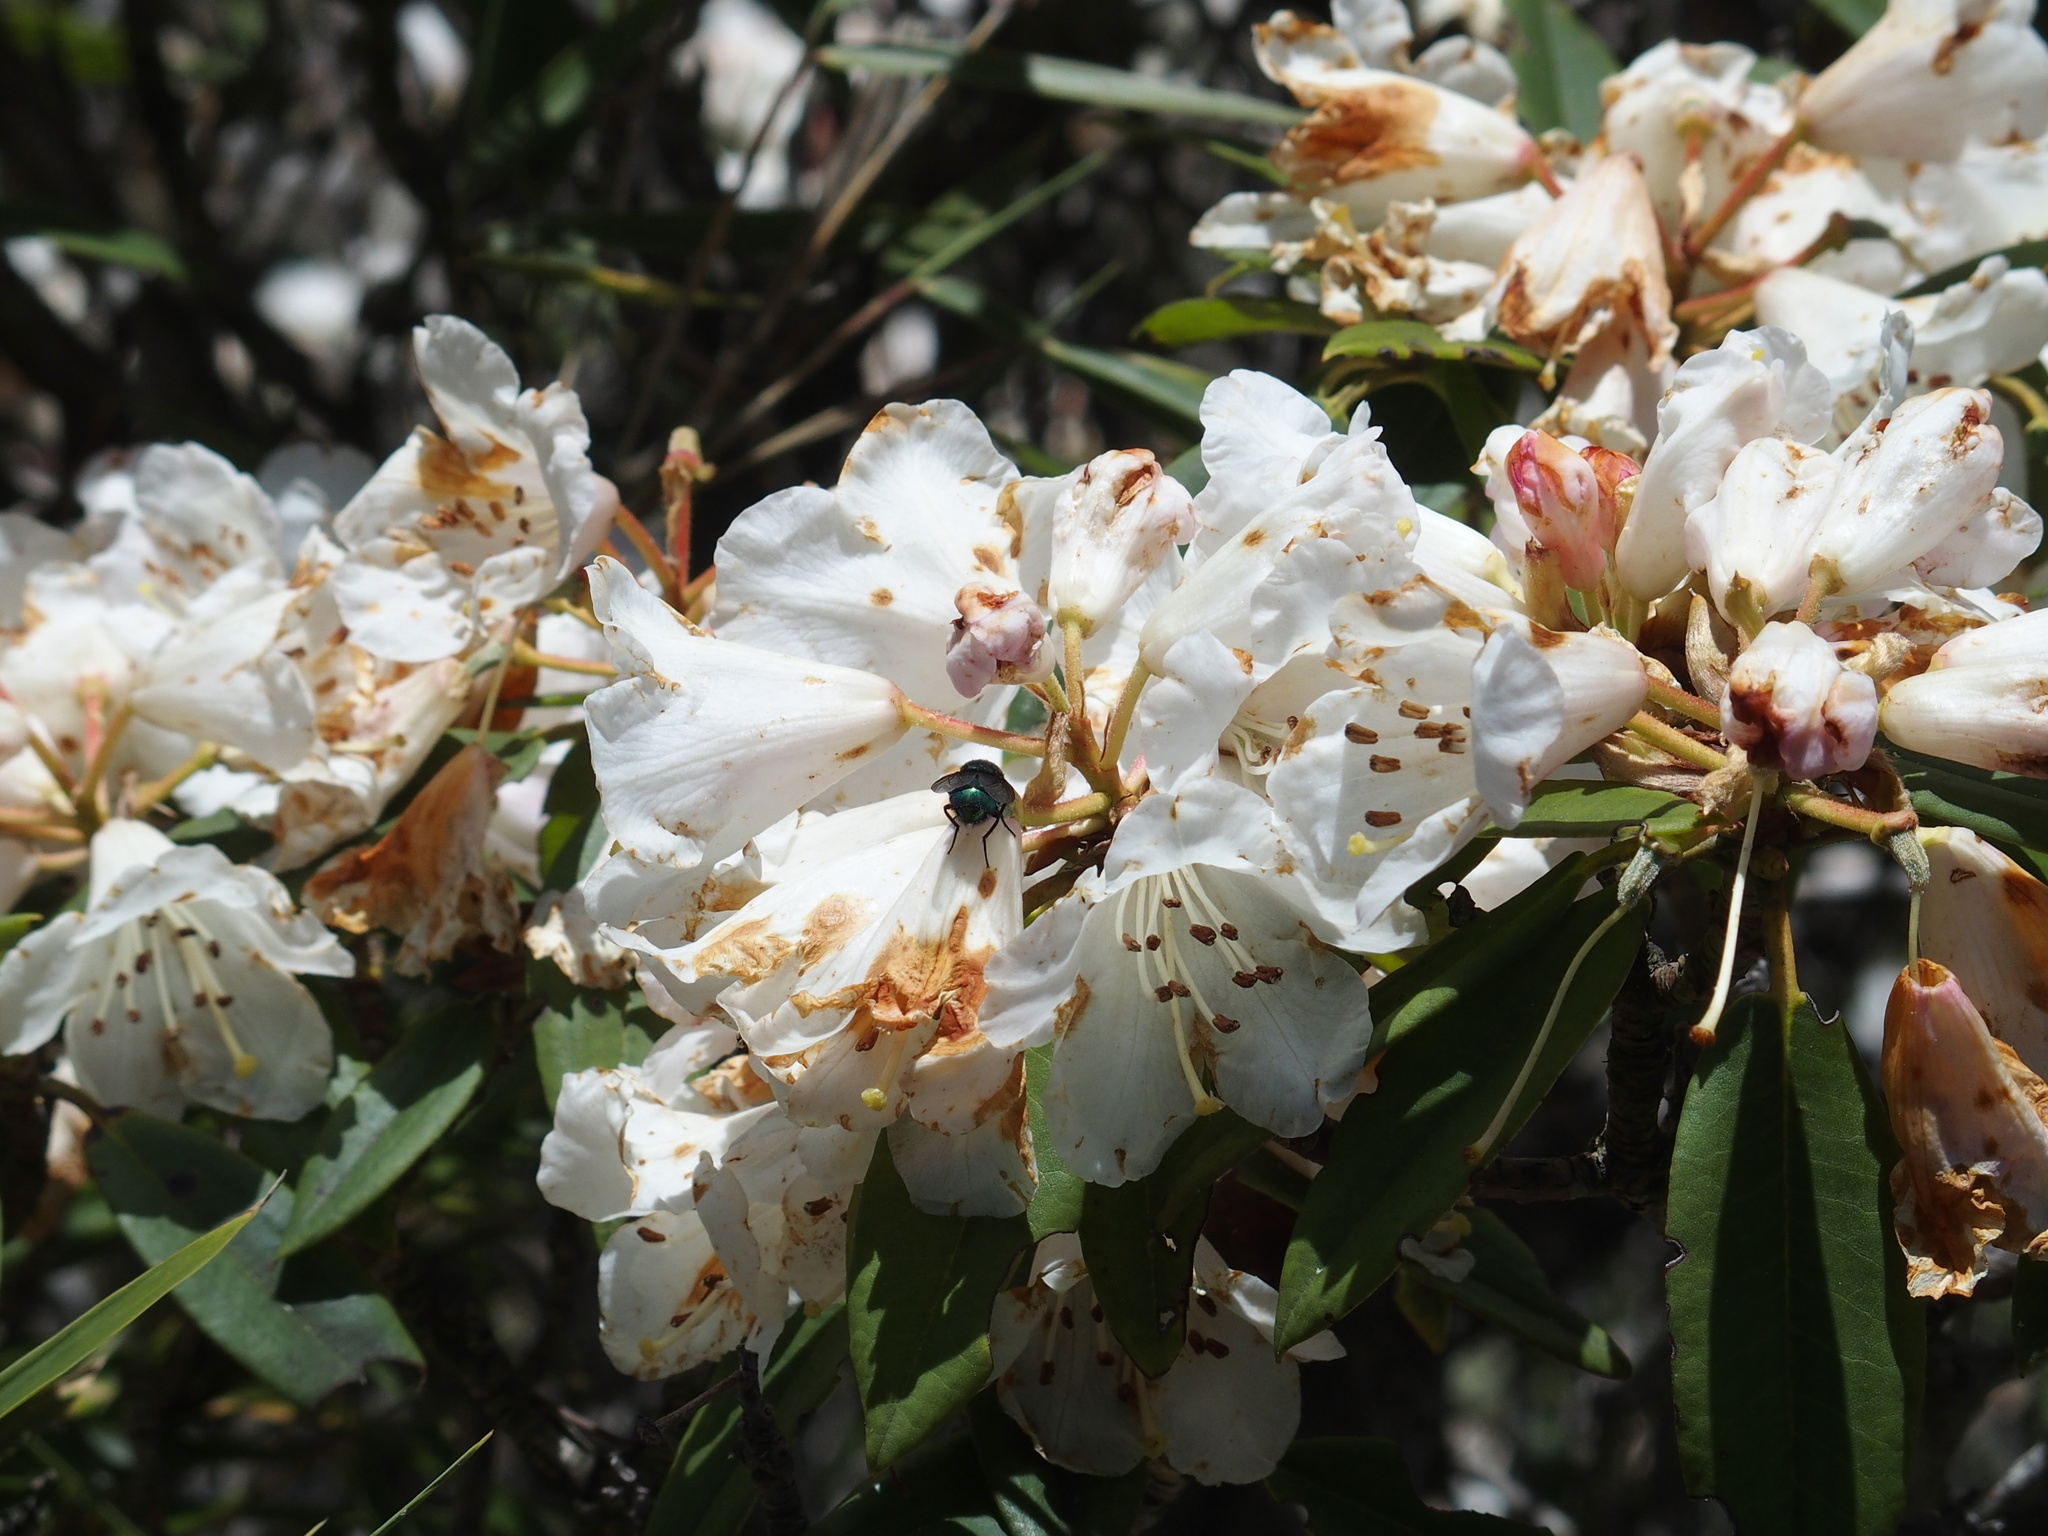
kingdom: Plantae
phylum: Tracheophyta
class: Magnoliopsida
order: Ericales
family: Ericaceae
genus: Rhododendron
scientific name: Rhododendron pseudochrysanthum
